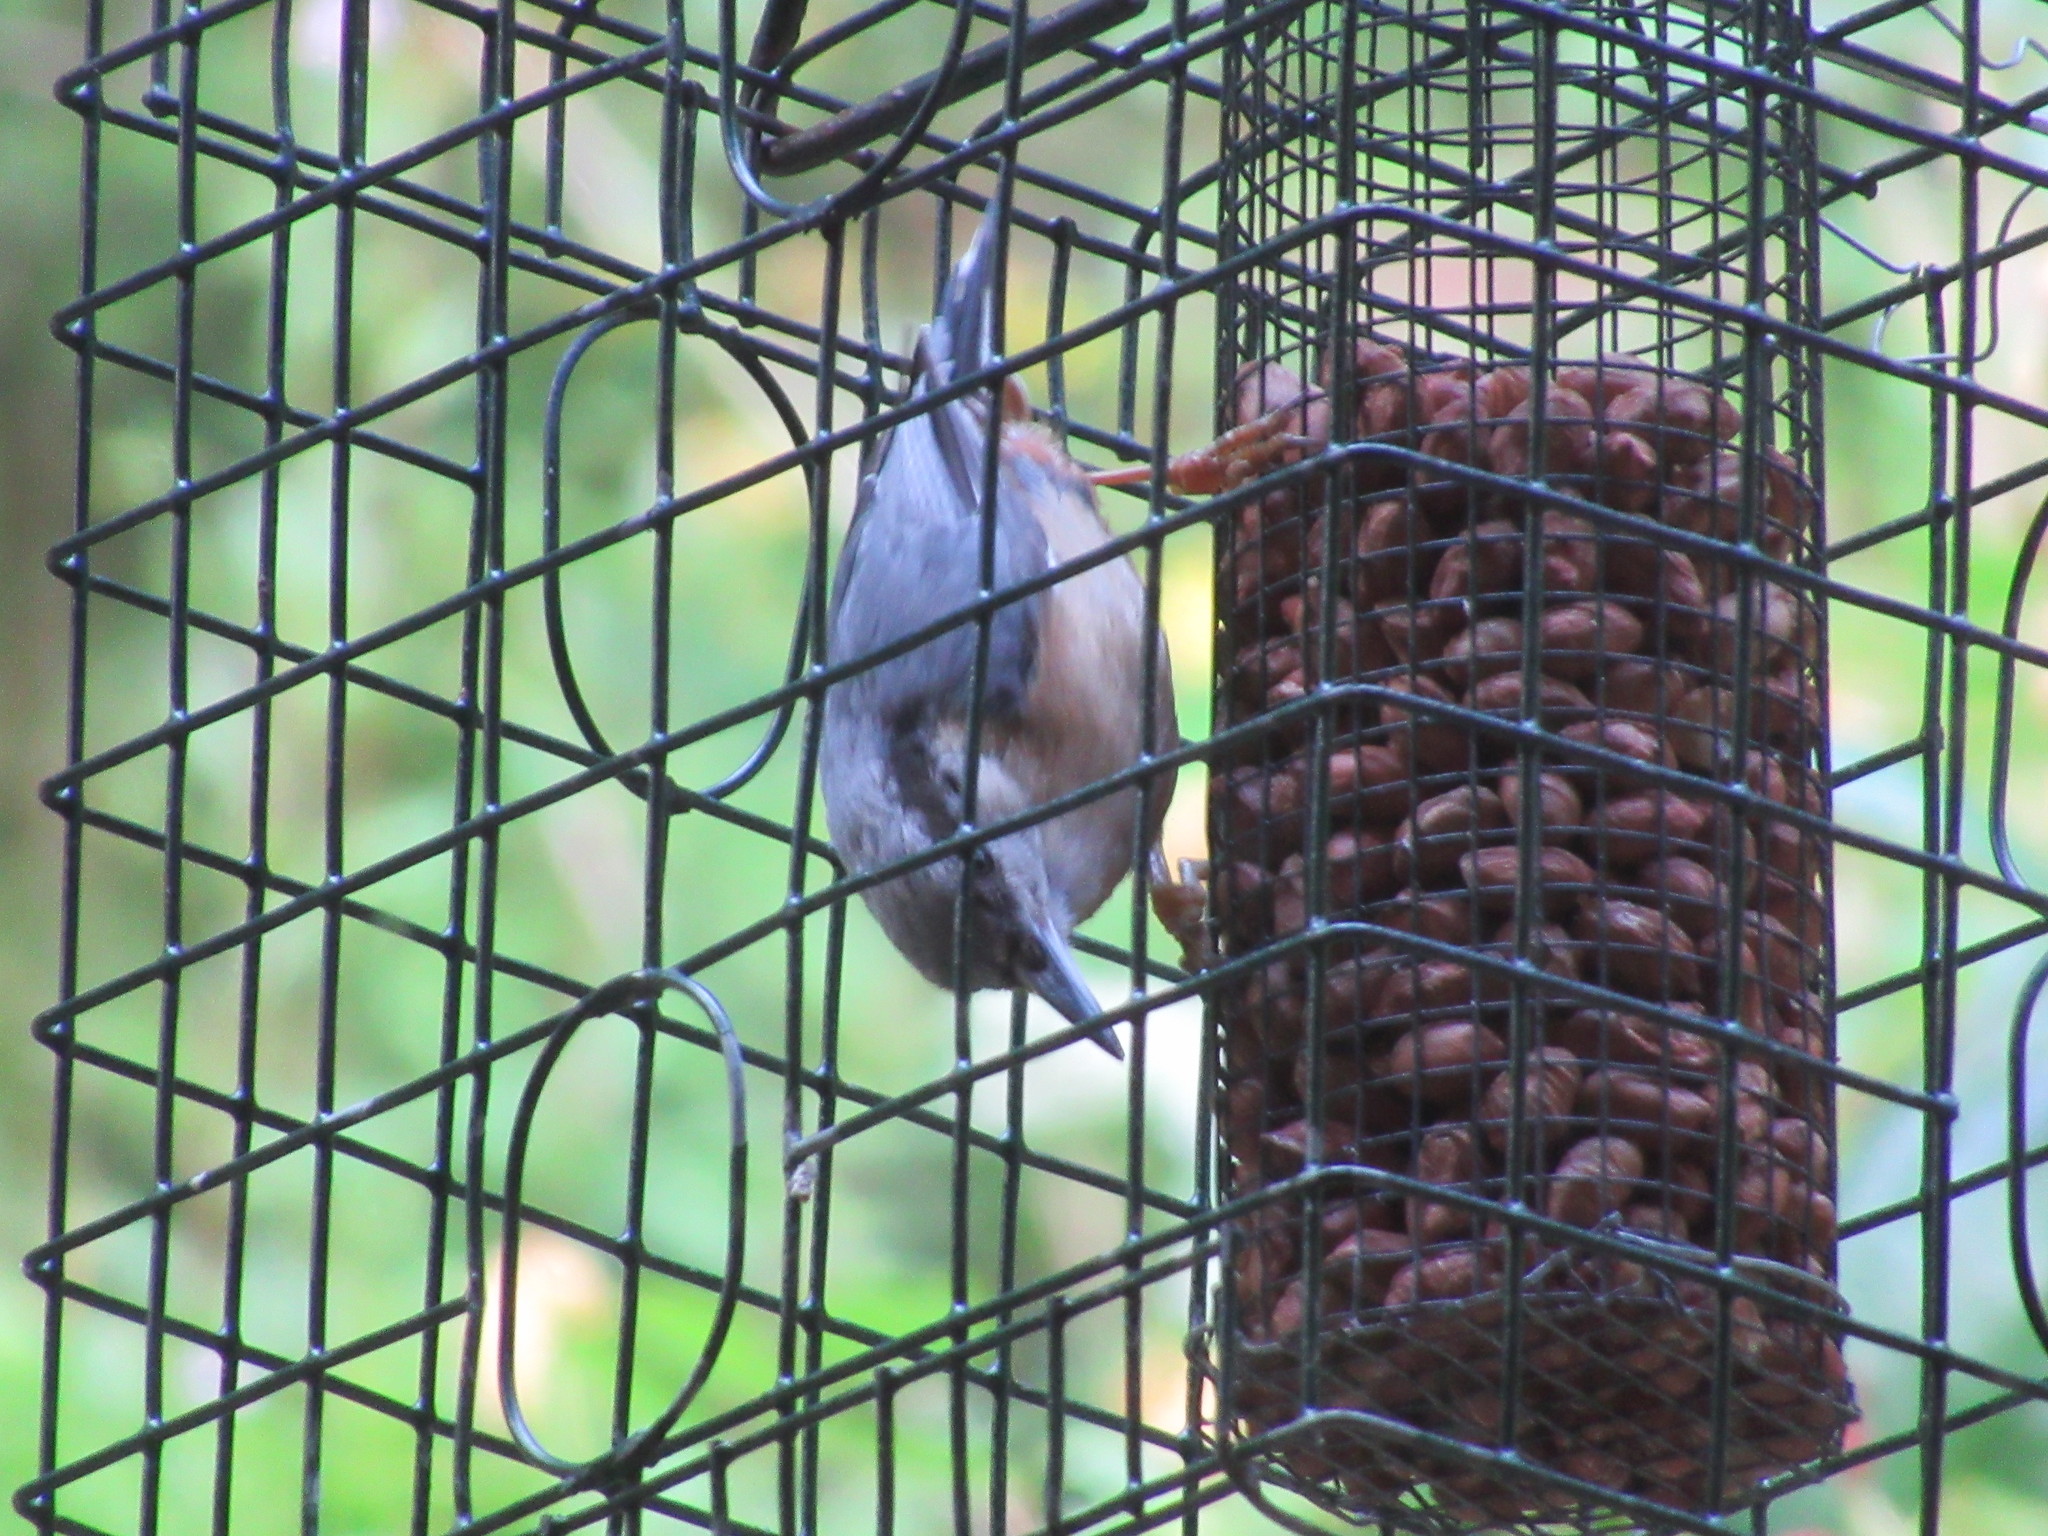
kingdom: Animalia
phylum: Chordata
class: Aves
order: Passeriformes
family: Sittidae
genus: Sitta
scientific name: Sitta europaea
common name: Eurasian nuthatch
